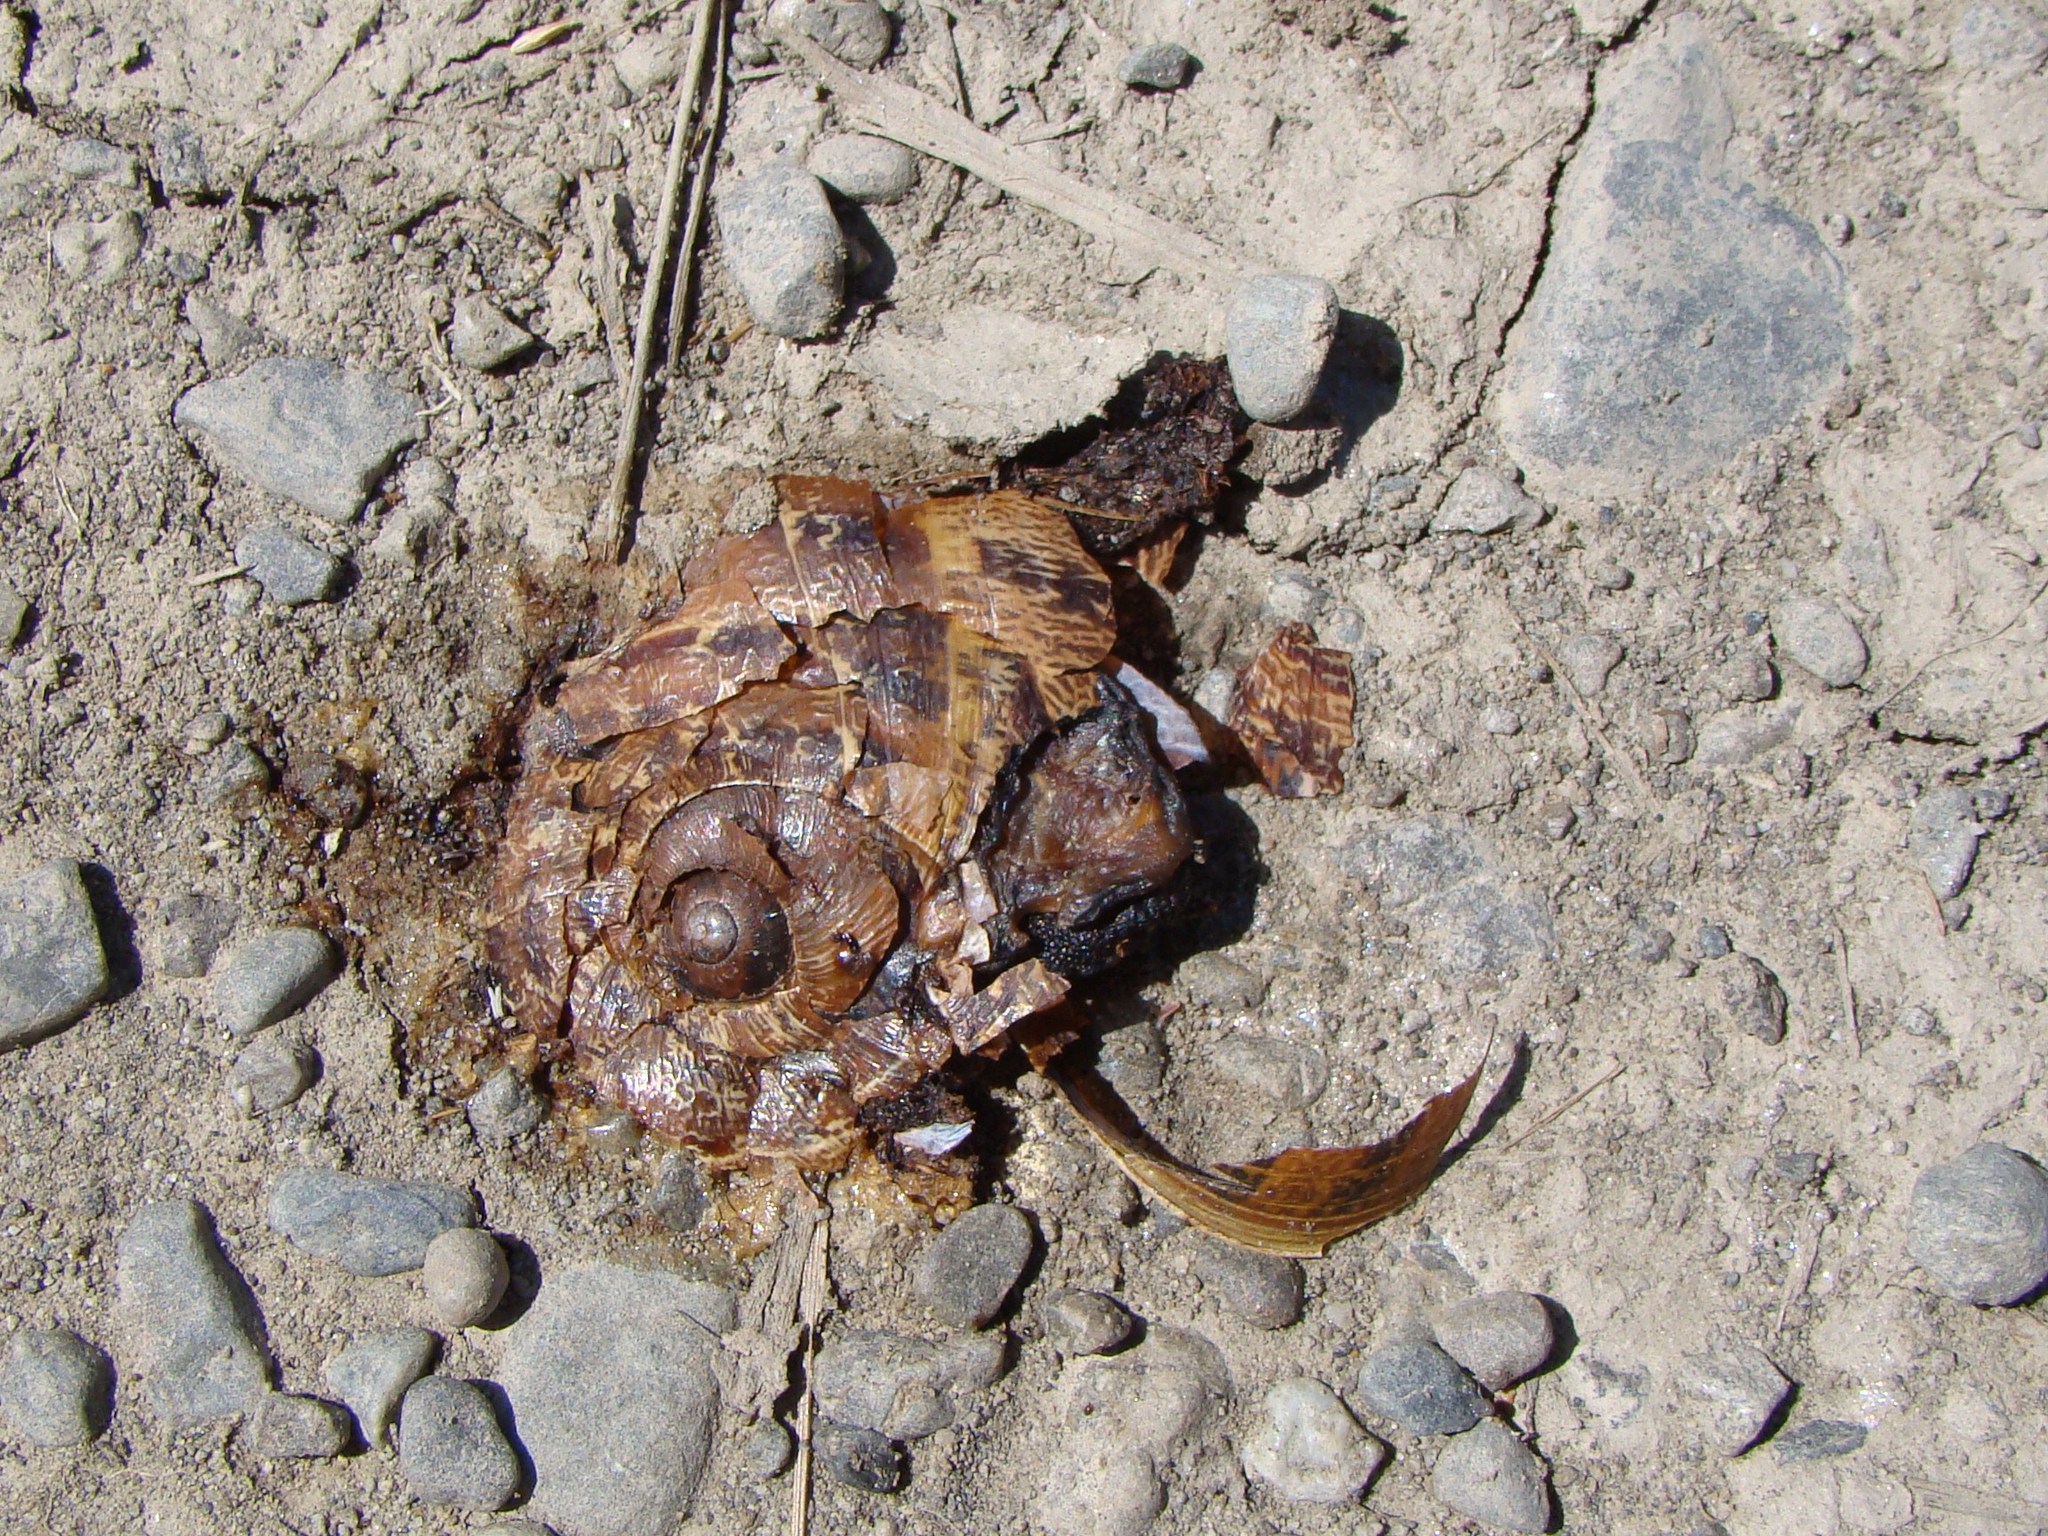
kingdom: Animalia
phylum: Mollusca
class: Gastropoda
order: Stylommatophora
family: Helicidae
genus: Cornu
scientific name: Cornu aspersum
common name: Brown garden snail
